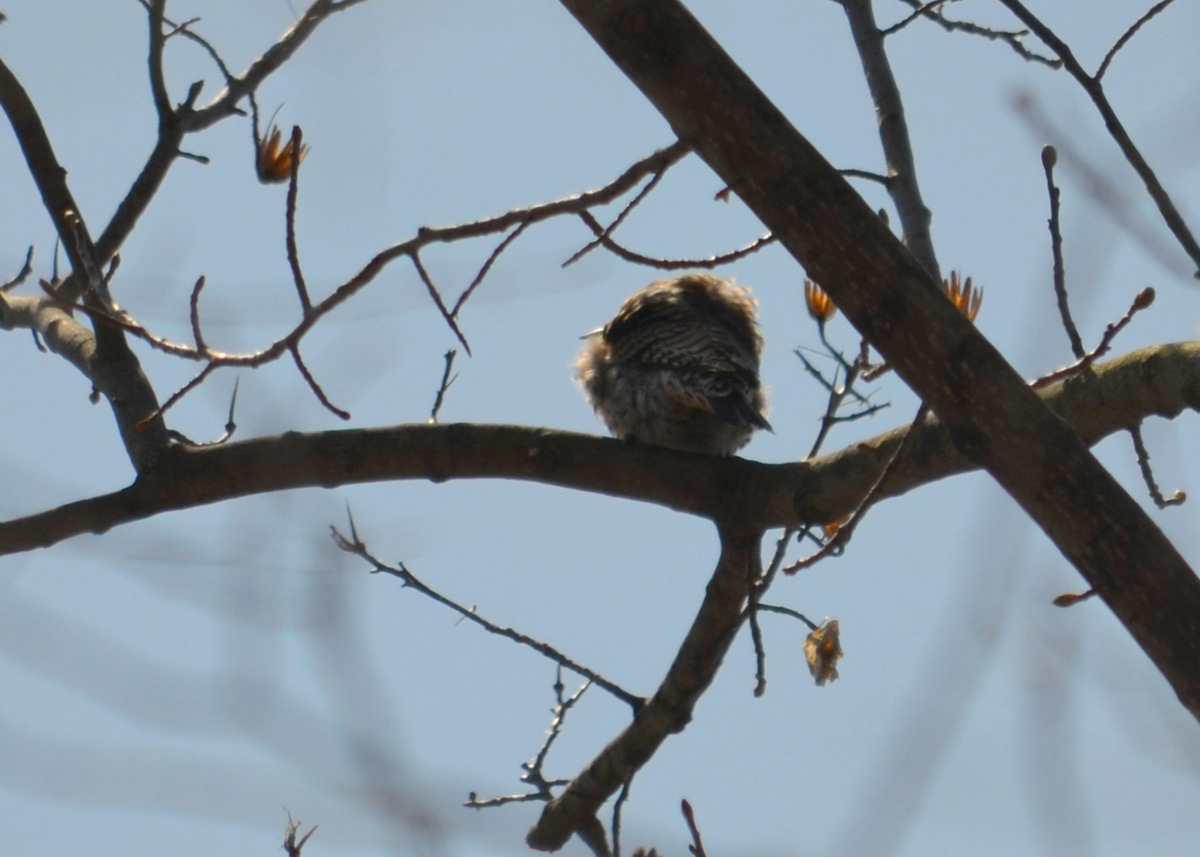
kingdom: Animalia
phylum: Chordata
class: Aves
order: Piciformes
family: Picidae
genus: Colaptes
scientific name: Colaptes auratus
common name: Northern flicker
